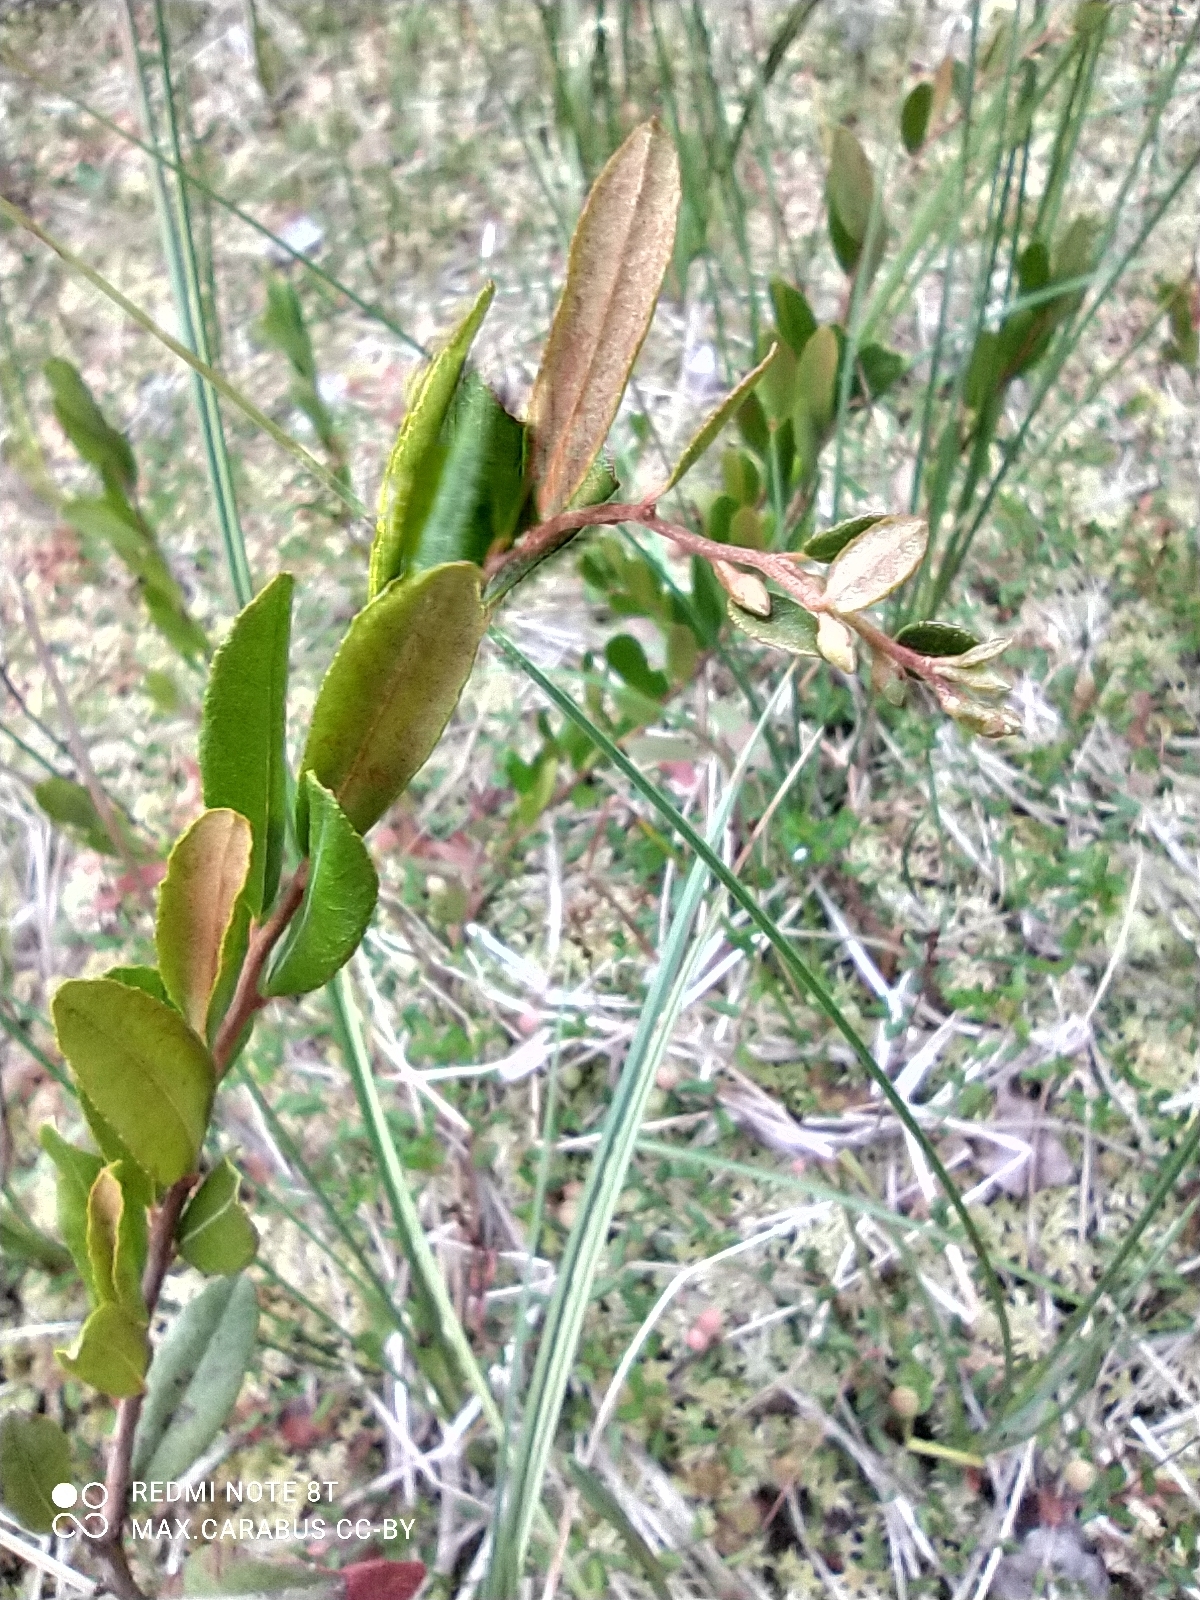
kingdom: Plantae
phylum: Tracheophyta
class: Magnoliopsida
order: Ericales
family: Ericaceae
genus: Chamaedaphne
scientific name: Chamaedaphne calyculata
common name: Leatherleaf
